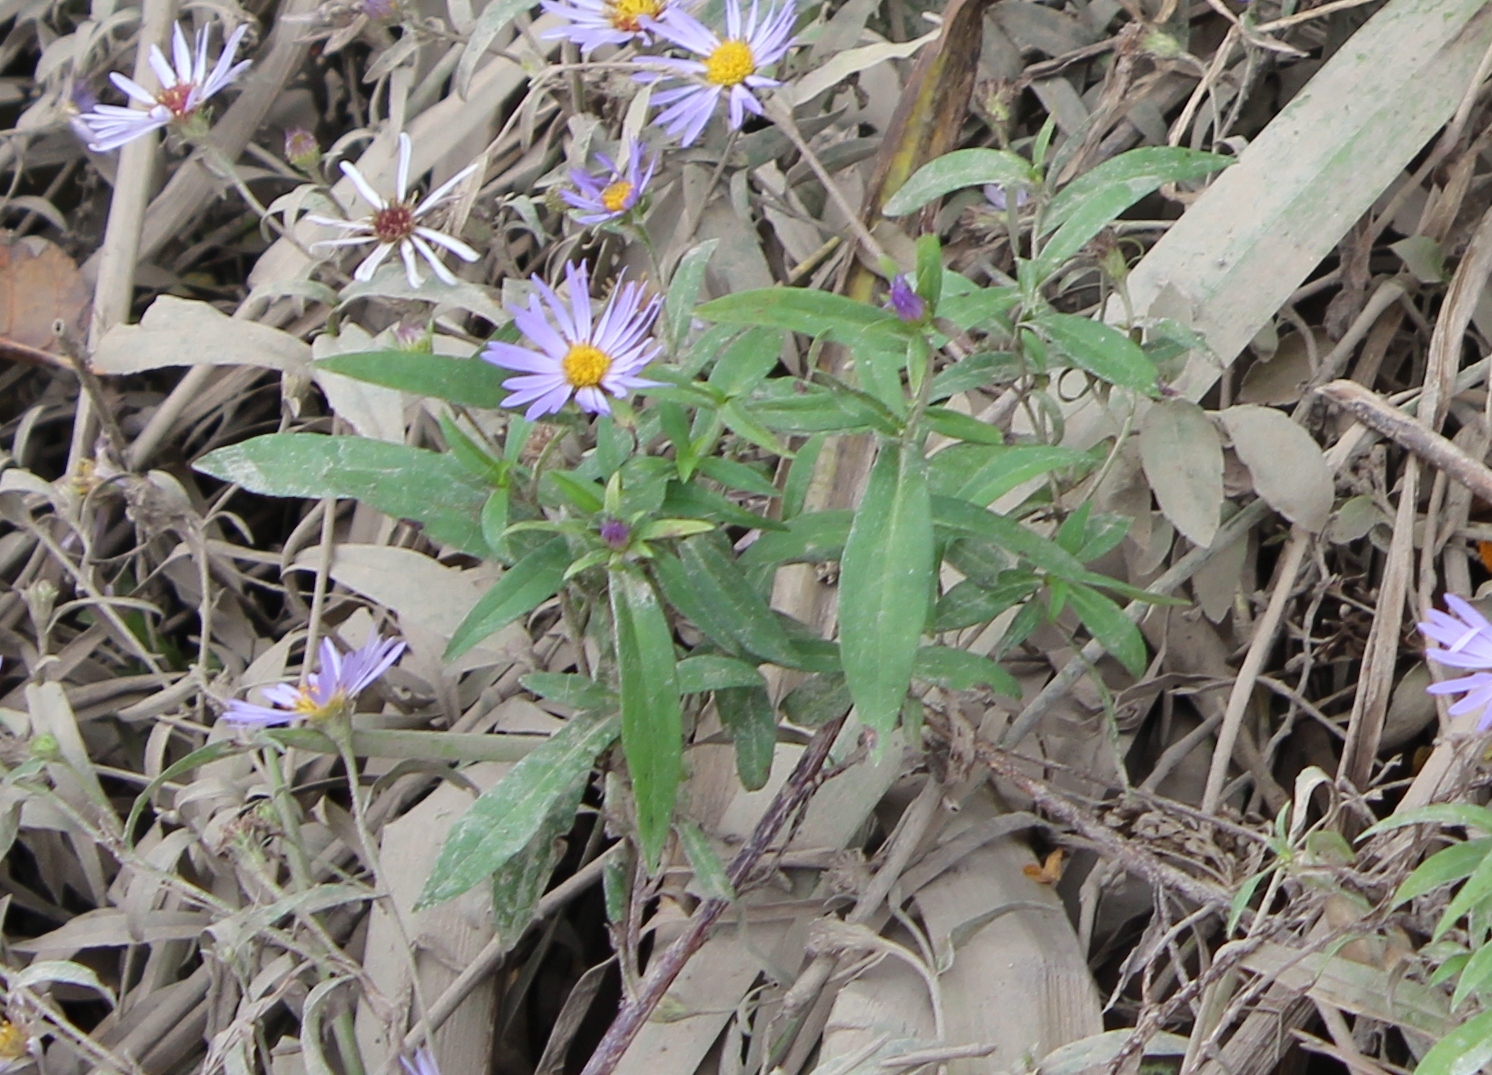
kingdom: Plantae
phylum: Tracheophyta
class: Magnoliopsida
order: Asterales
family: Asteraceae
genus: Symphyotrichum
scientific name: Symphyotrichum subspicatum
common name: Douglas' aster
